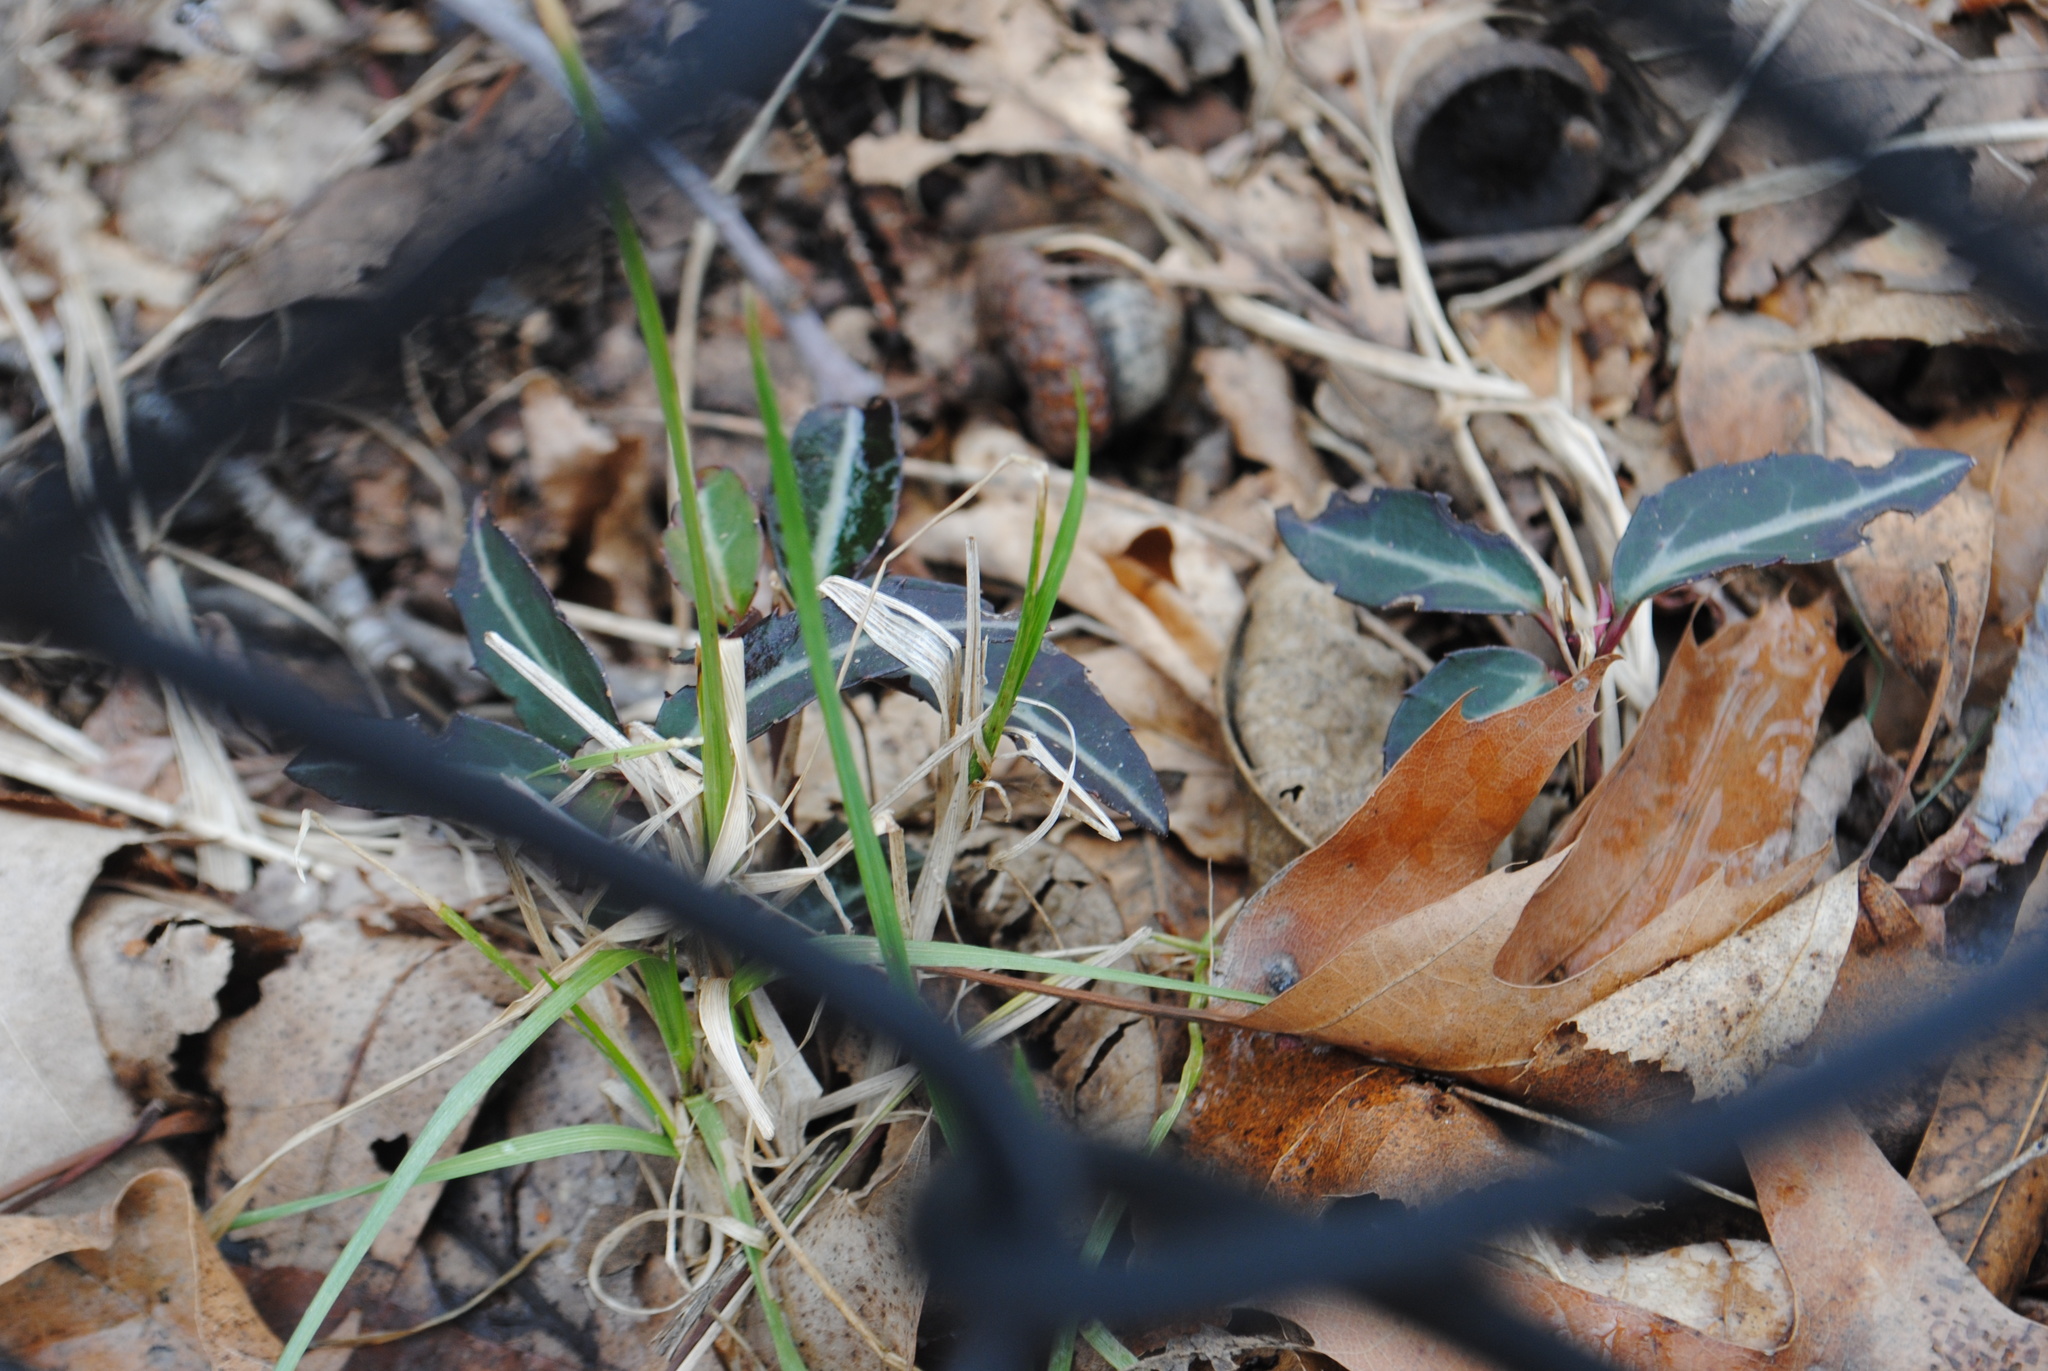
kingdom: Plantae
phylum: Tracheophyta
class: Magnoliopsida
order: Ericales
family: Ericaceae
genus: Chimaphila
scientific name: Chimaphila maculata
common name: Spotted pipsissewa
